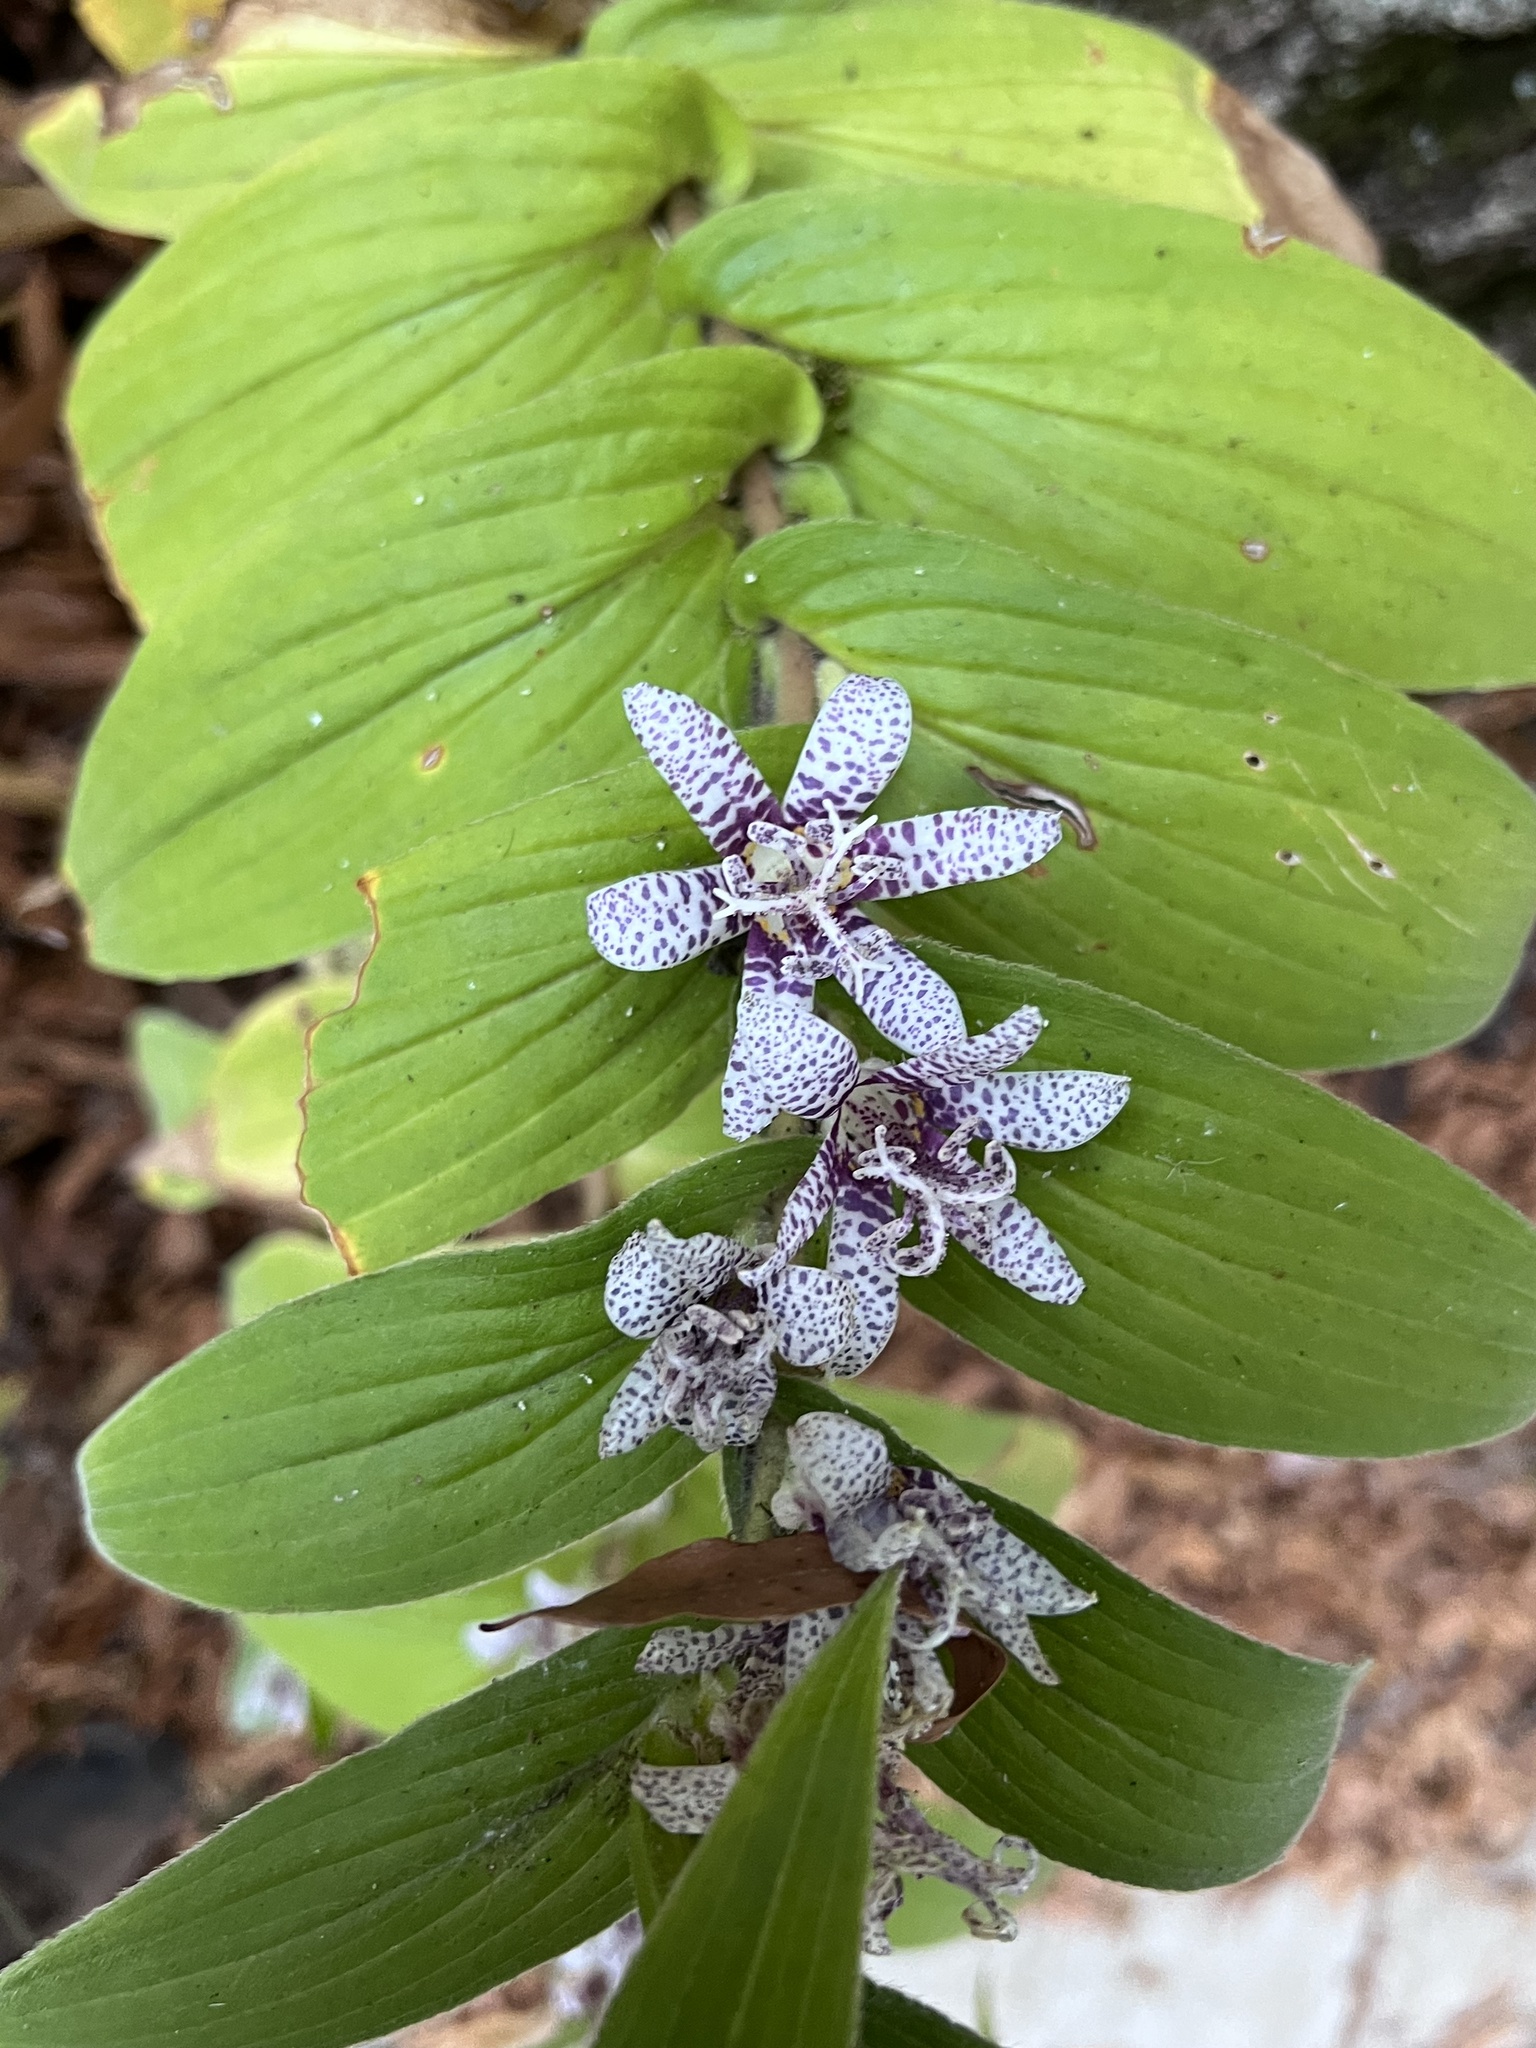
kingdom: Plantae
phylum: Tracheophyta
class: Liliopsida
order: Liliales
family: Liliaceae
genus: Tricyrtis
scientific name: Tricyrtis hirta
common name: Toadlily
